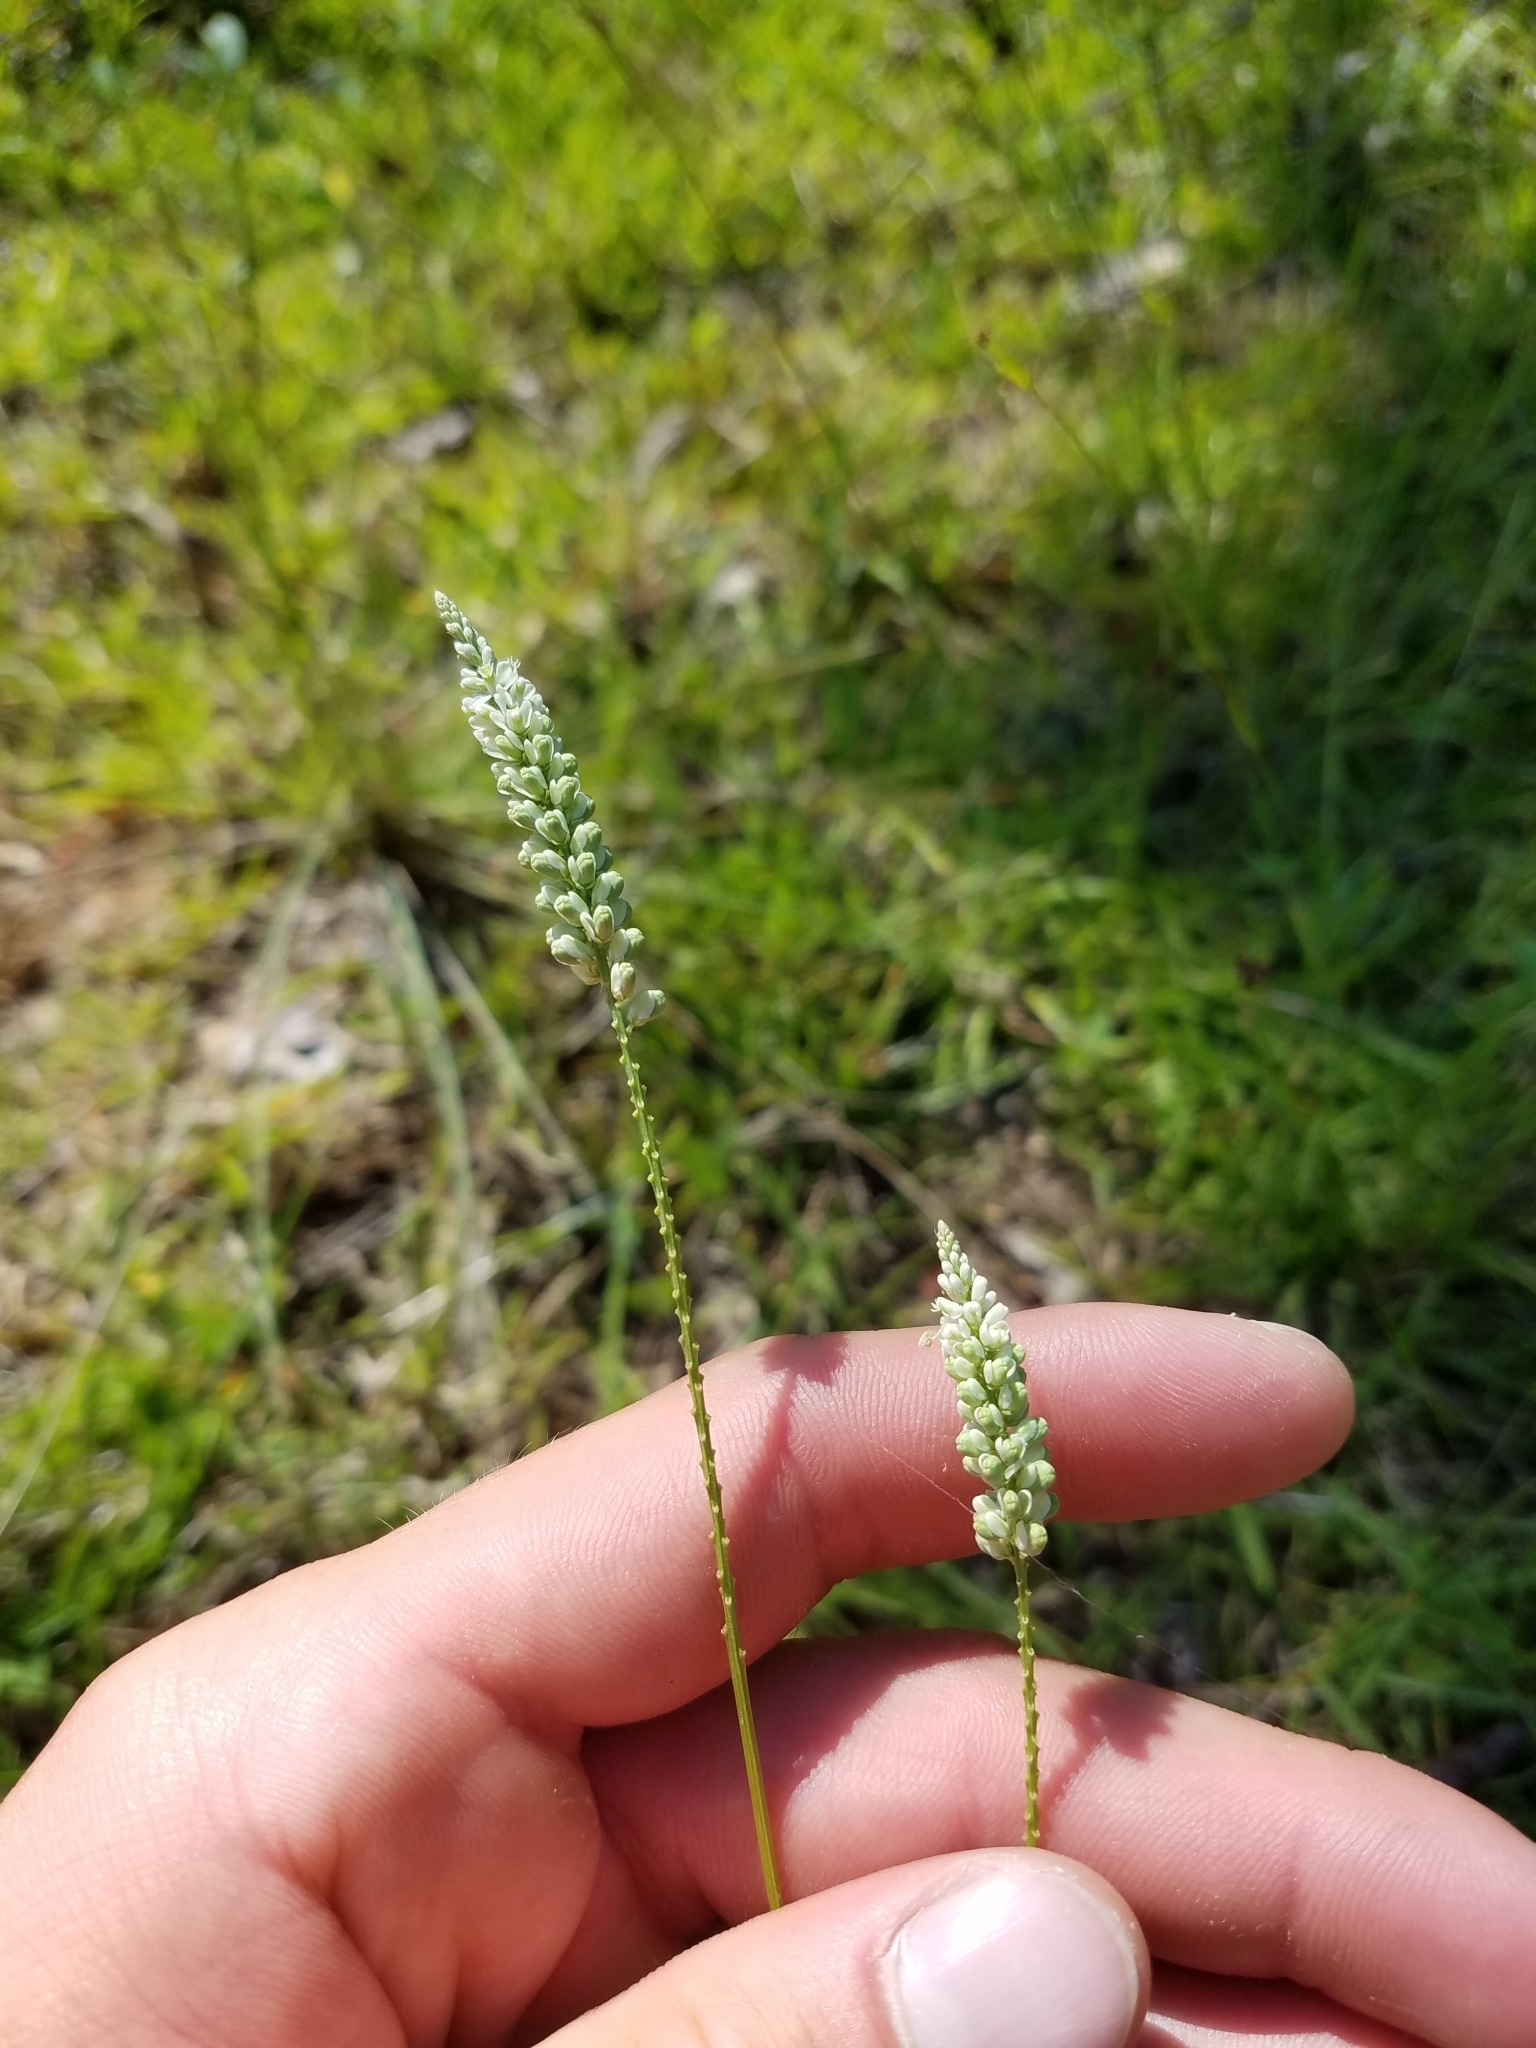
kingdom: Plantae
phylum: Tracheophyta
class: Magnoliopsida
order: Fabales
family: Polygalaceae
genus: Polygala
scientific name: Polygala boykinii
